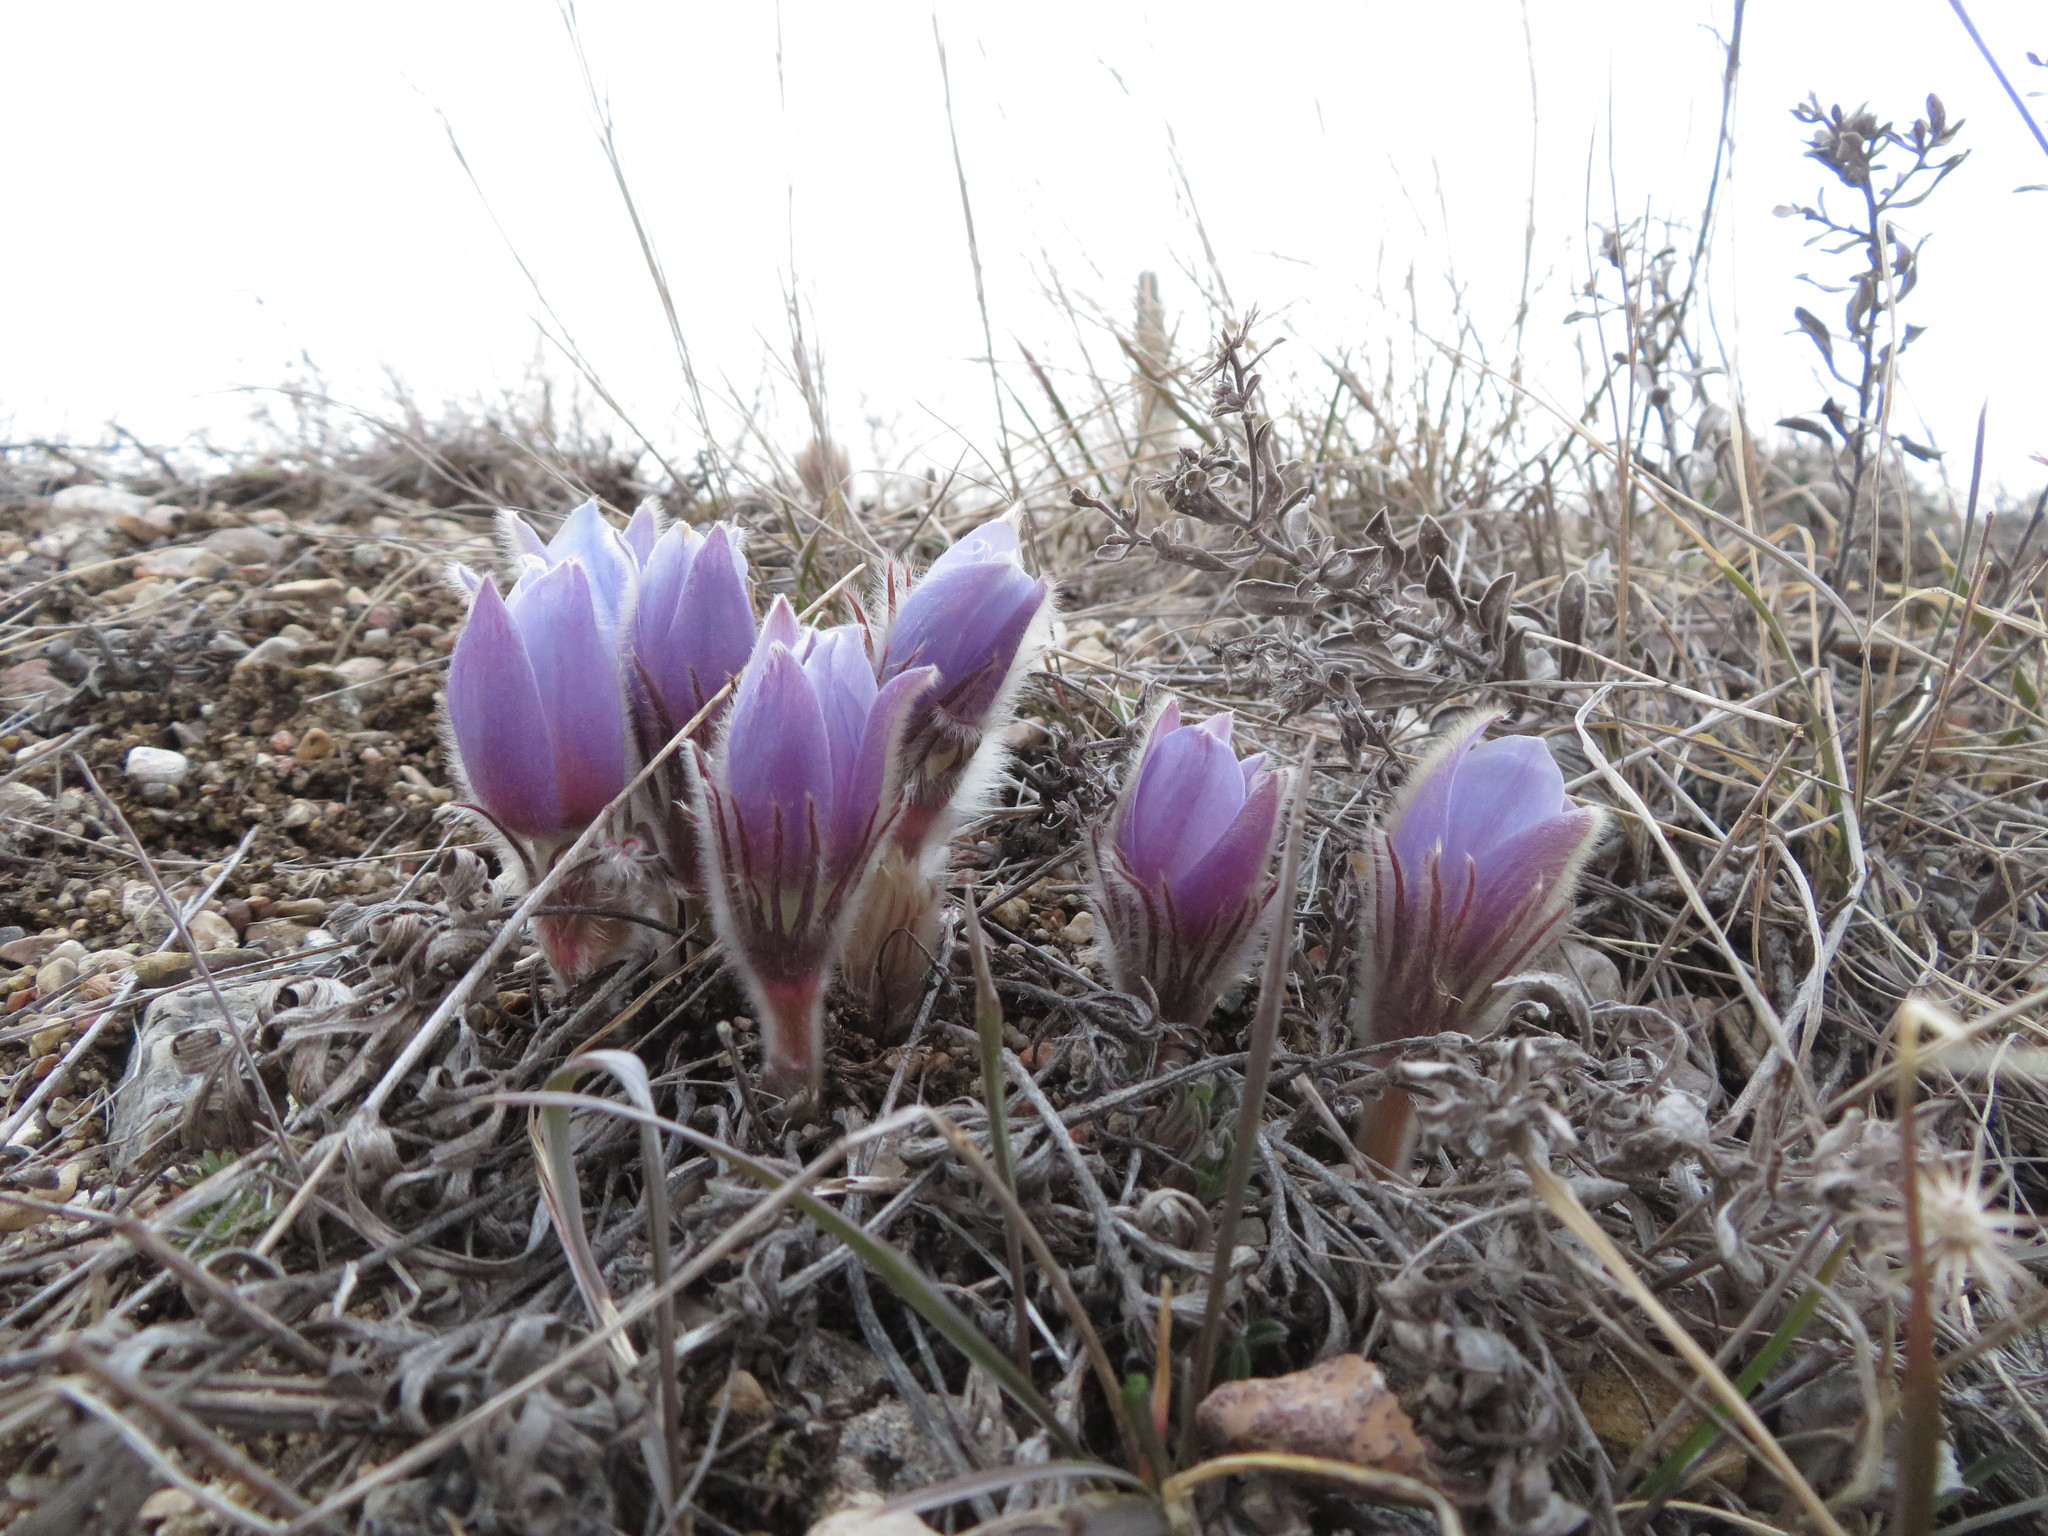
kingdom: Plantae
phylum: Tracheophyta
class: Magnoliopsida
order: Ranunculales
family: Ranunculaceae
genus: Pulsatilla
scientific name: Pulsatilla nuttalliana
